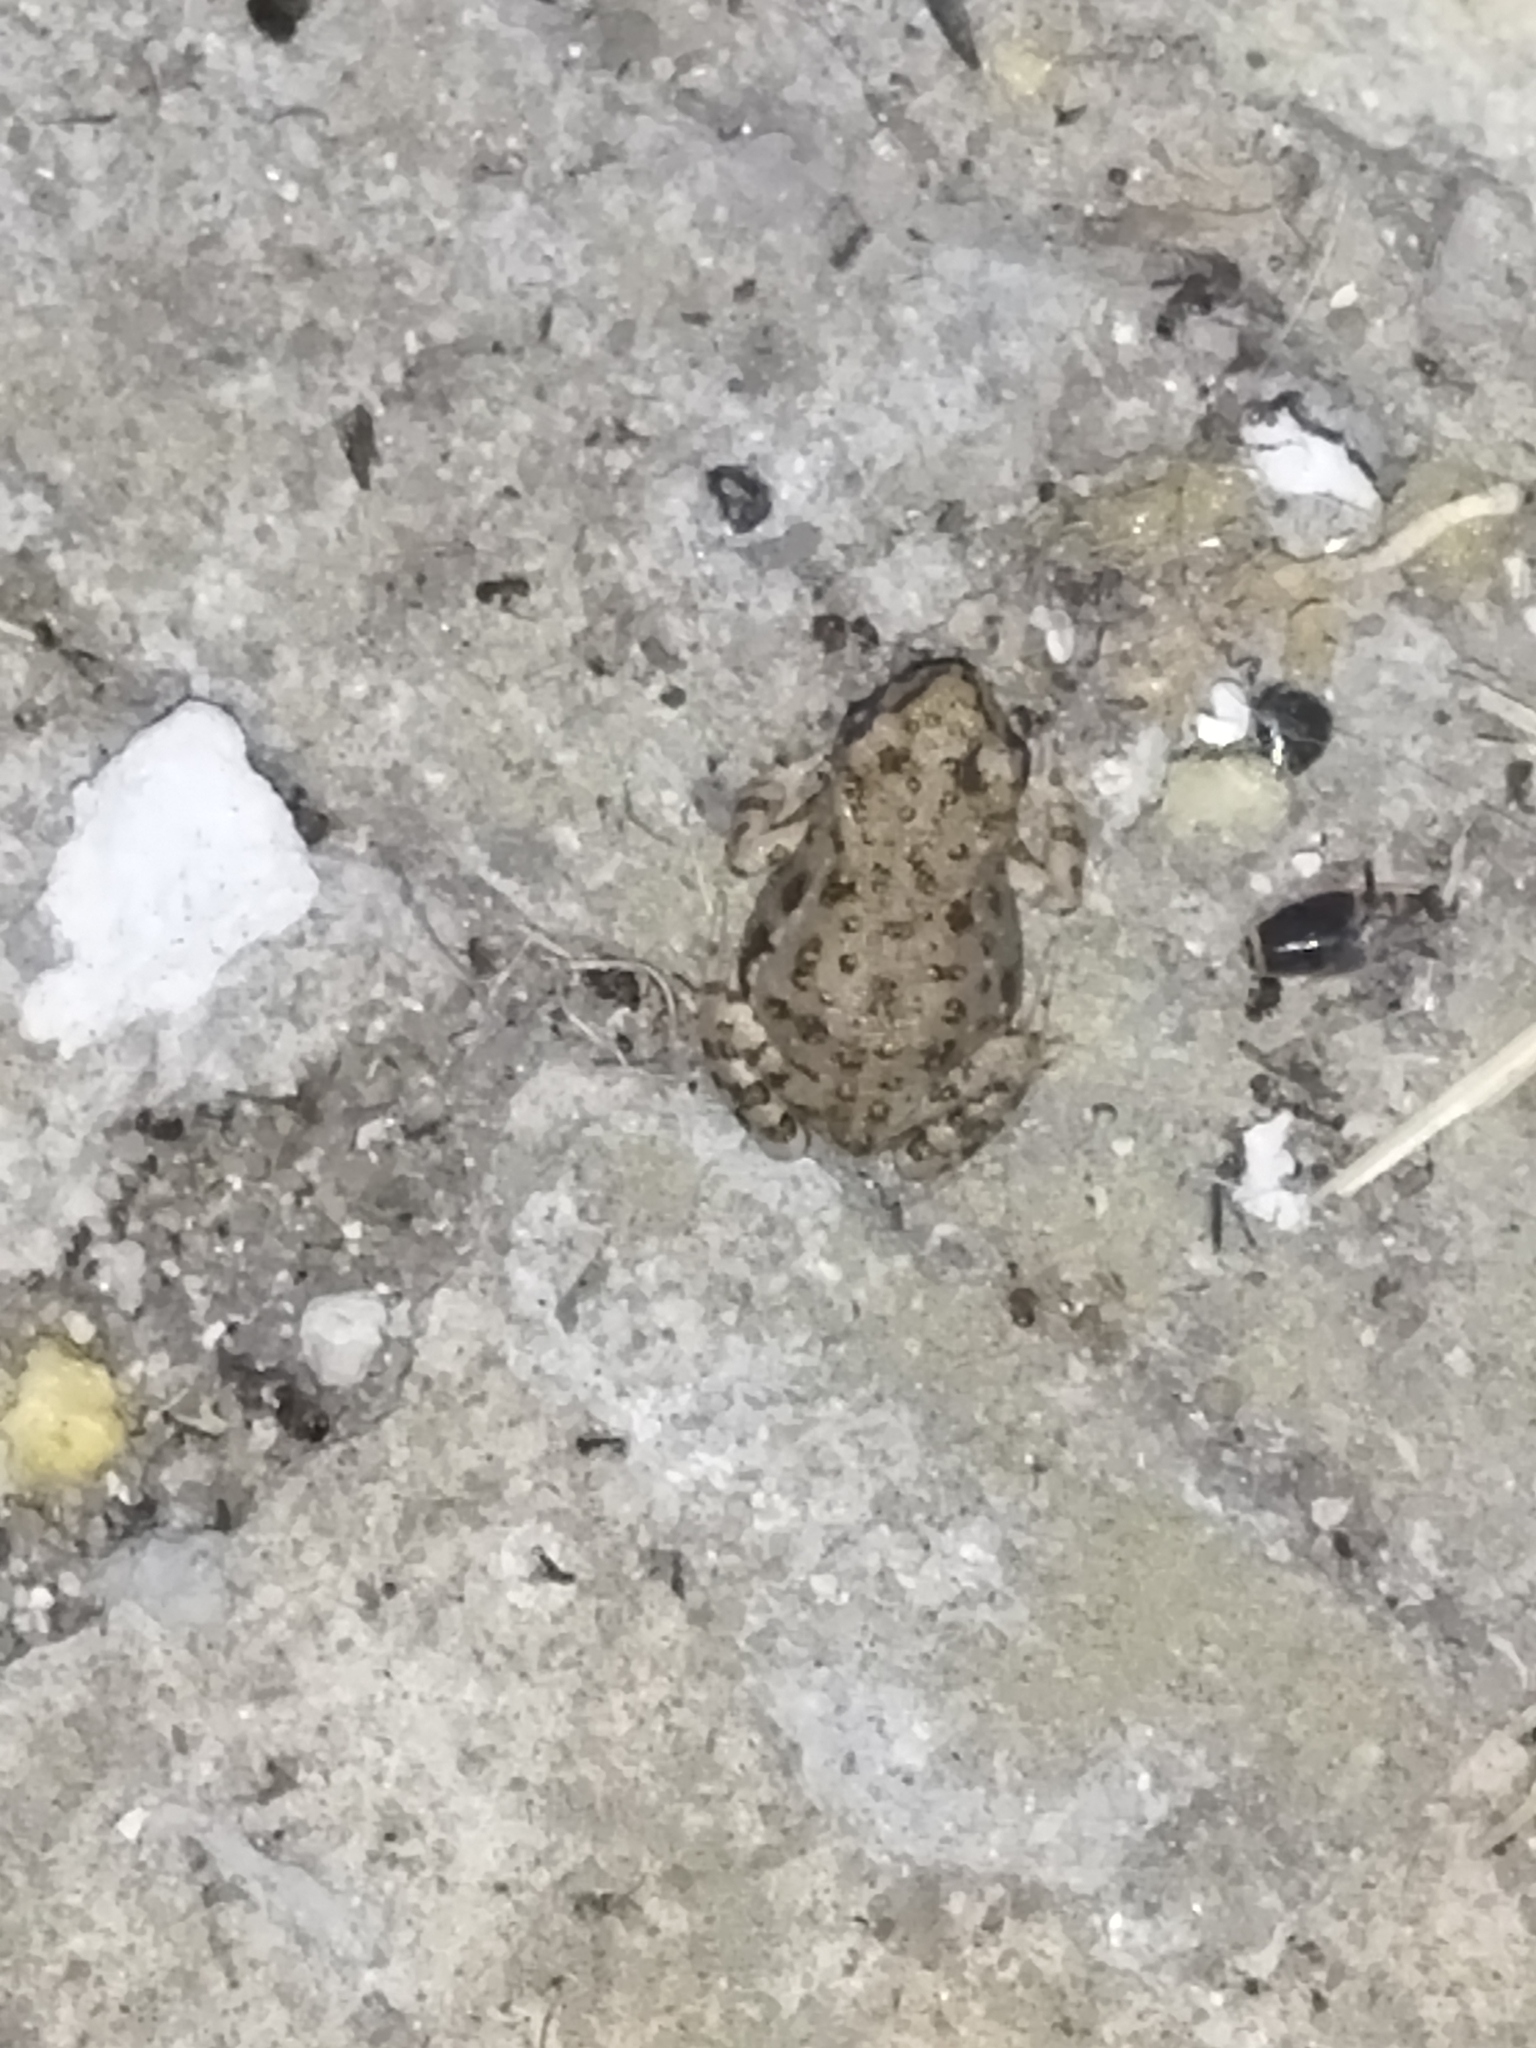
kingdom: Animalia
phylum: Chordata
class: Amphibia
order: Anura
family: Bufonidae
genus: Bufotes
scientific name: Bufotes viridis
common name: European green toad
